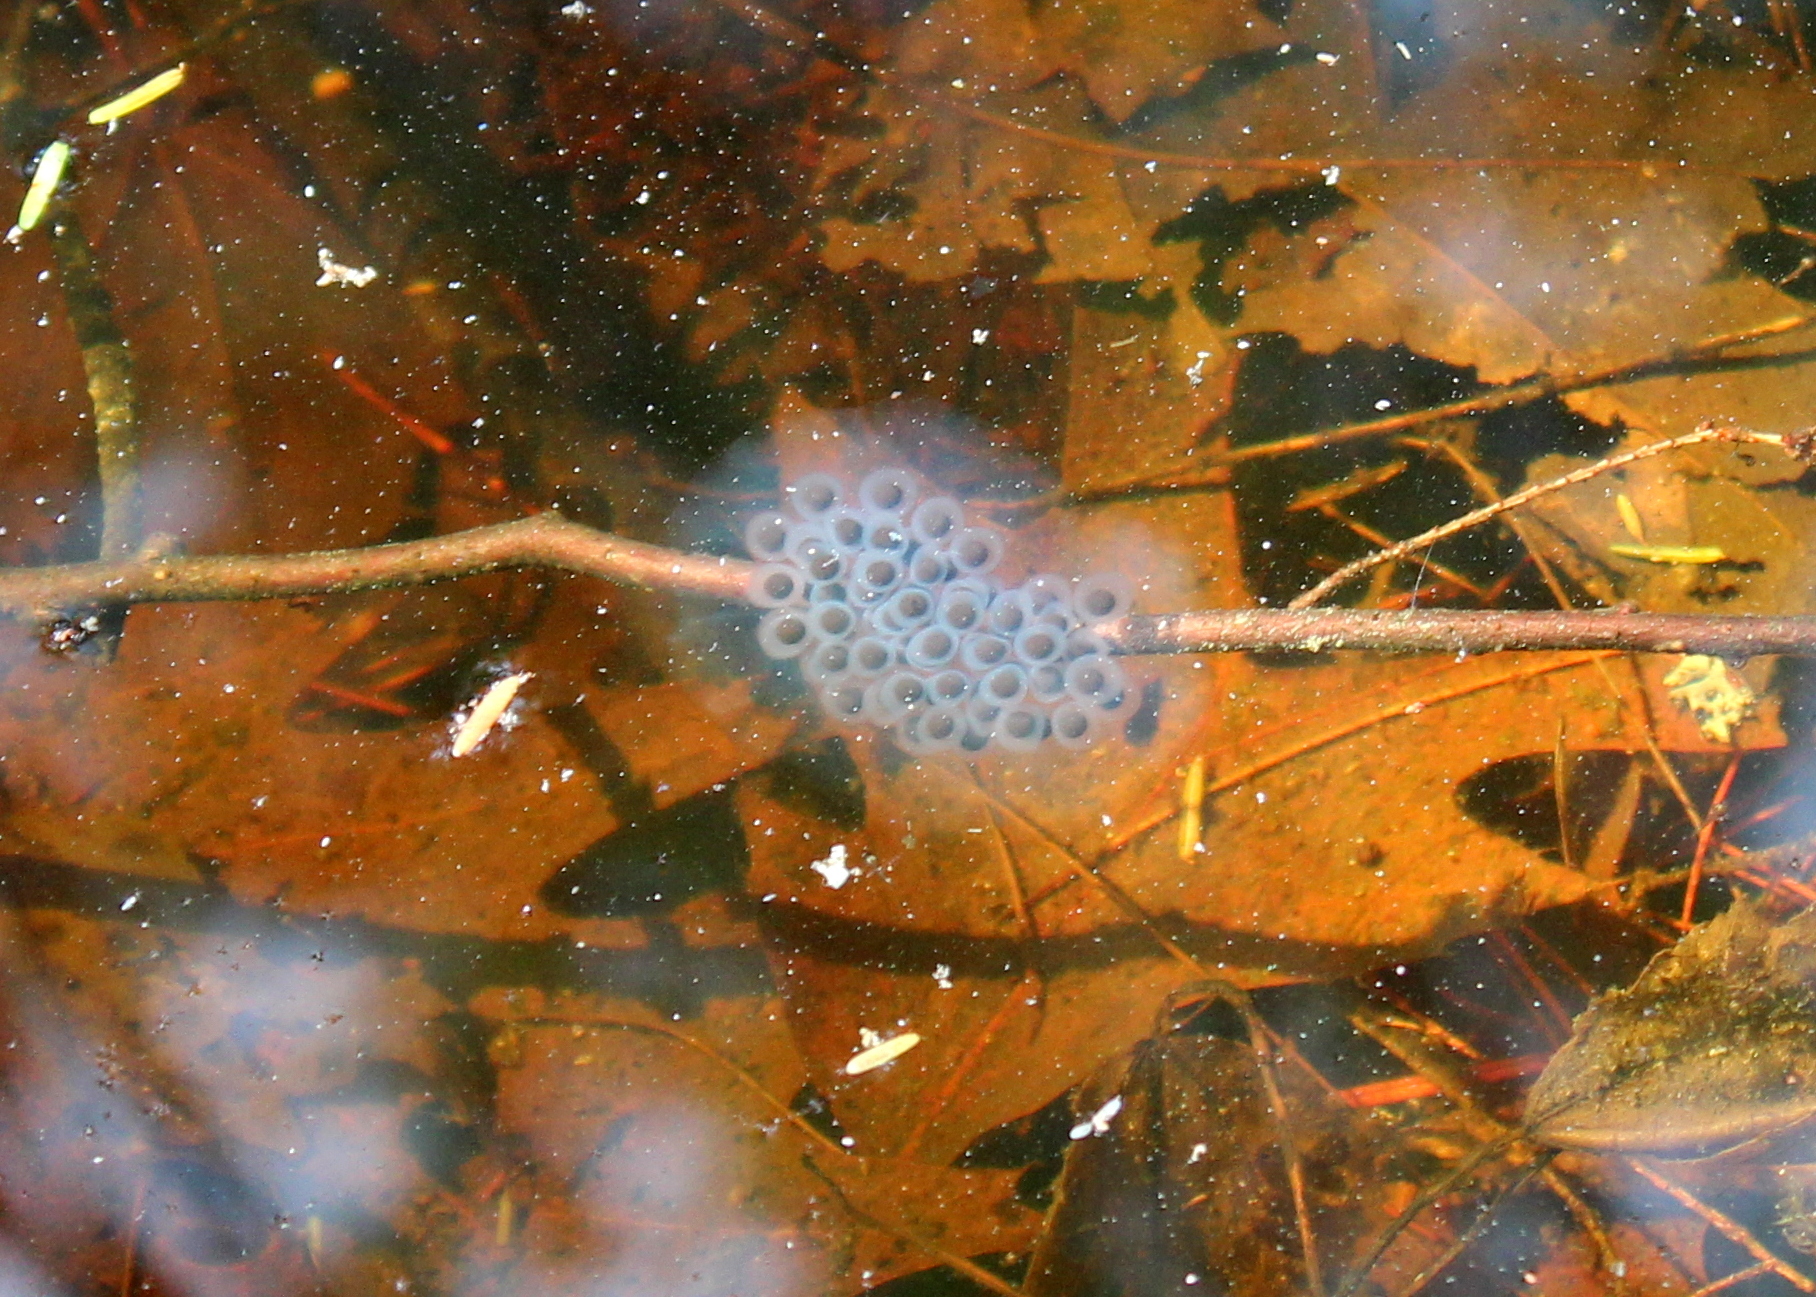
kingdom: Animalia
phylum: Chordata
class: Amphibia
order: Caudata
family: Ambystomatidae
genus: Ambystoma
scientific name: Ambystoma maculatum
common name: Spotted salamander
